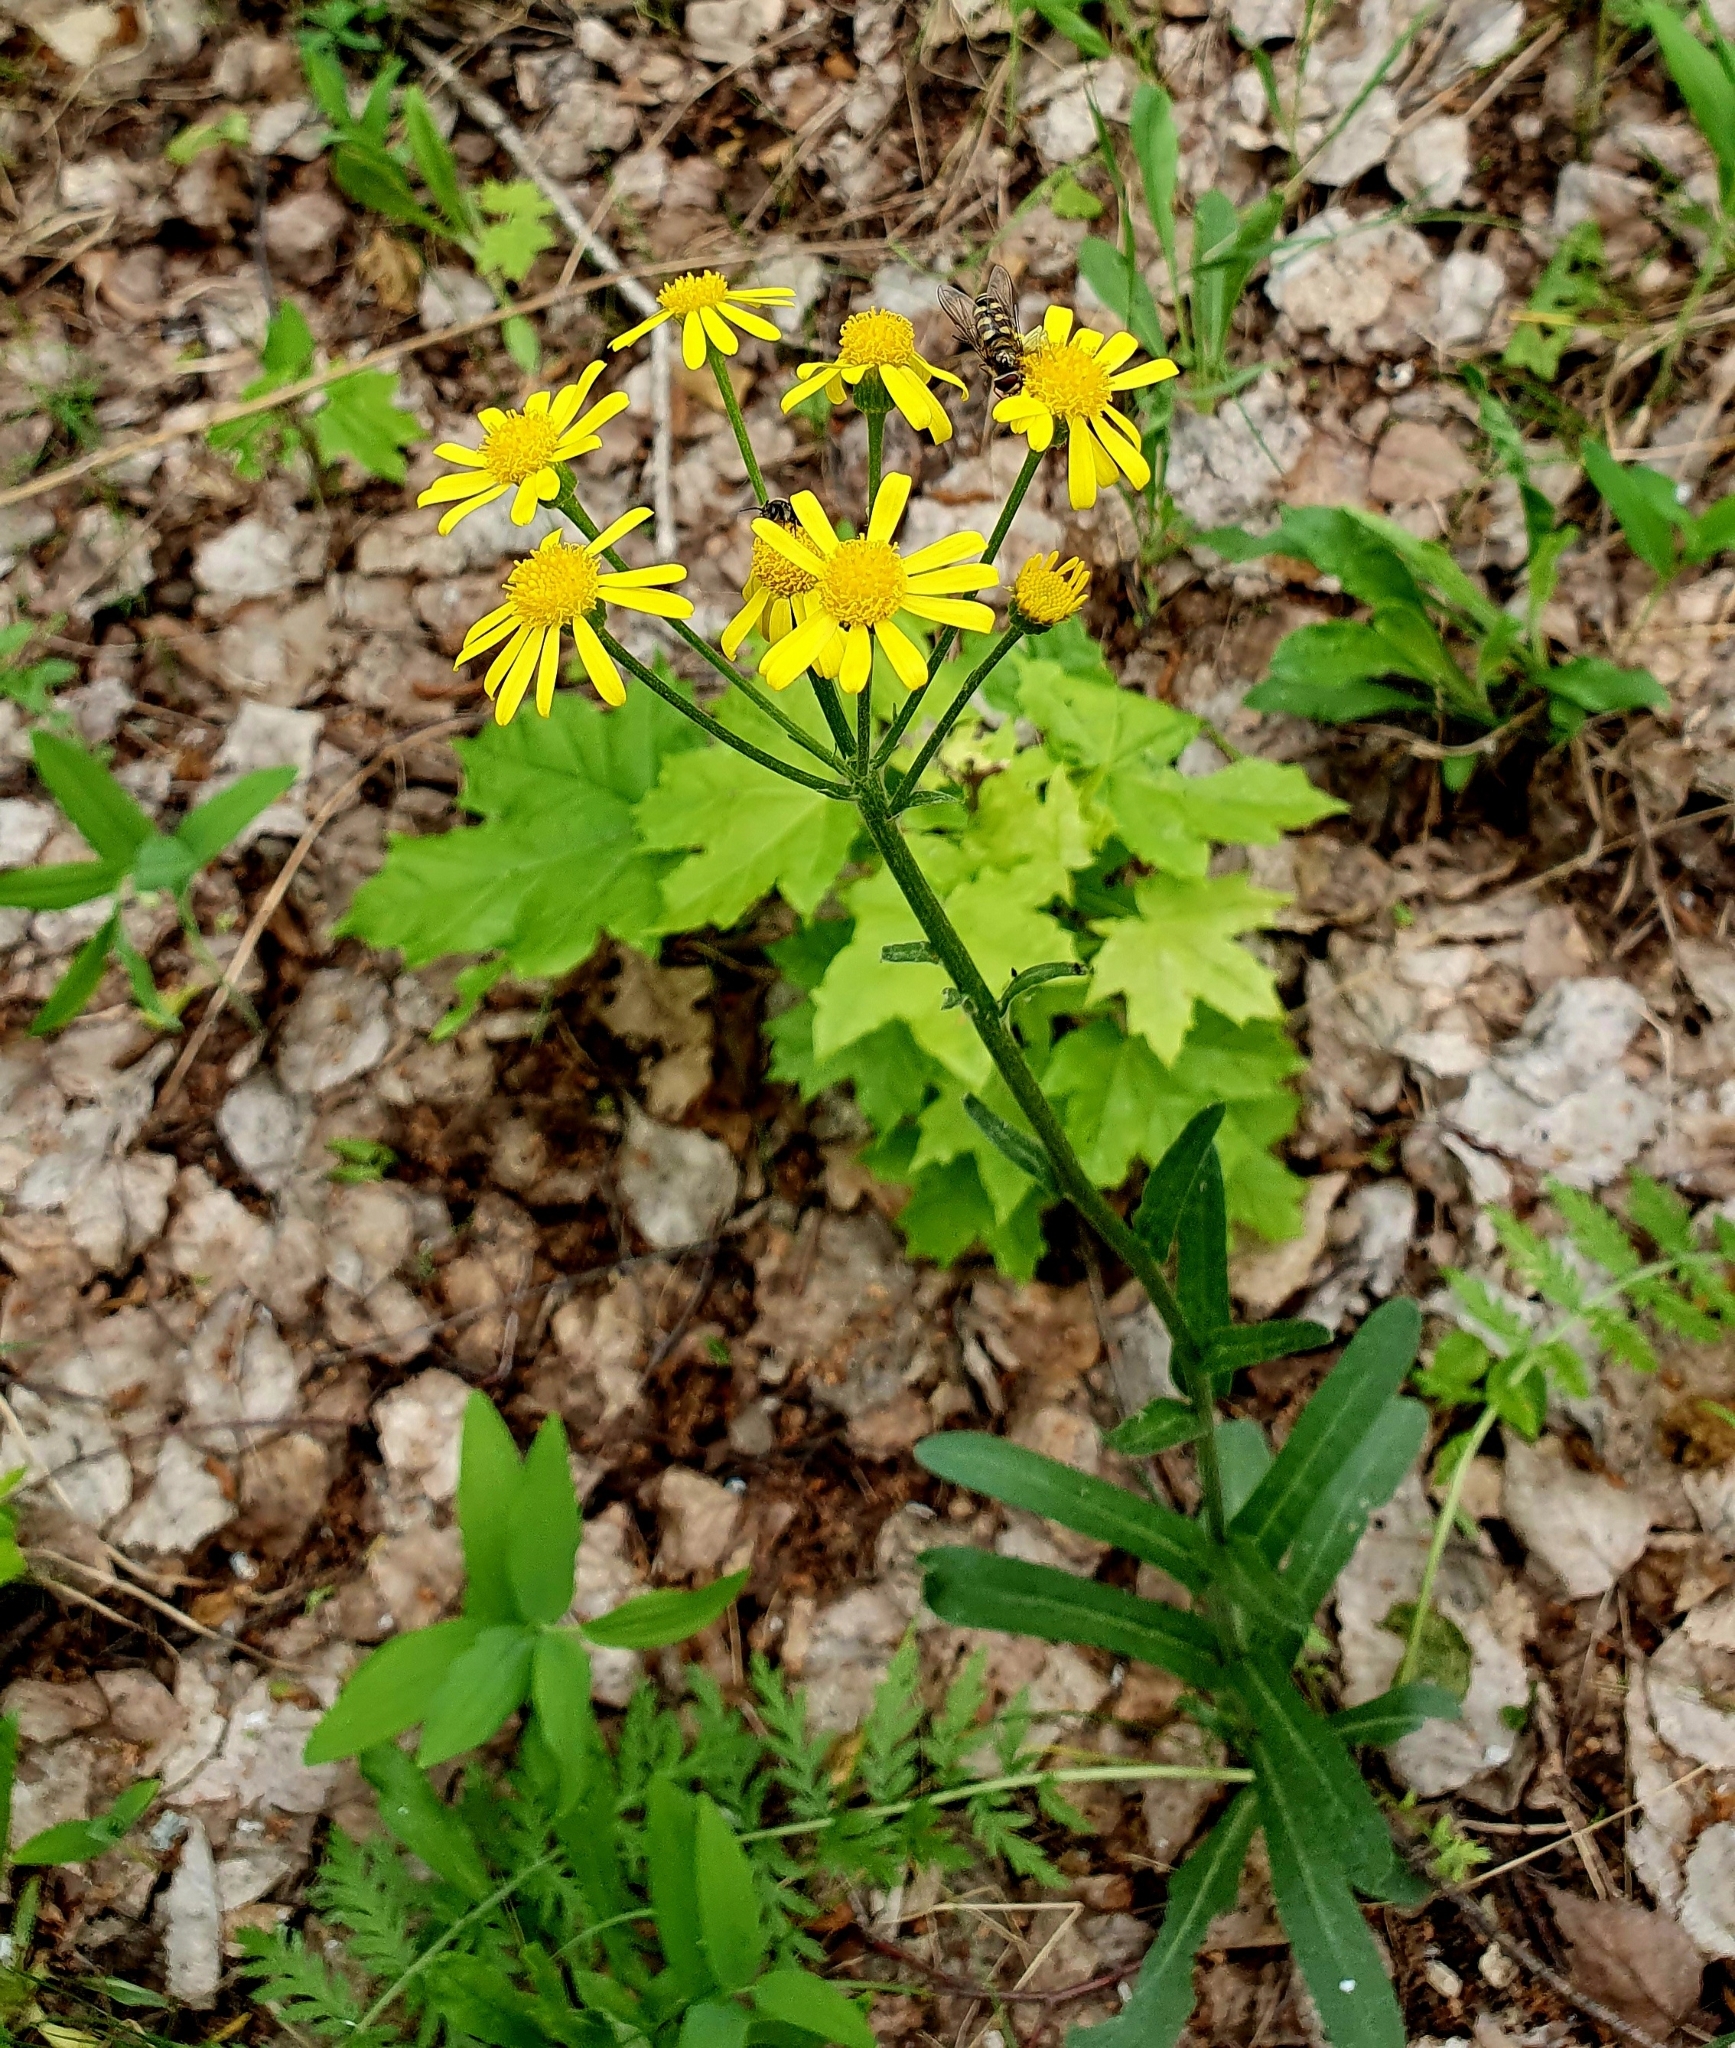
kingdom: Plantae
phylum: Tracheophyta
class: Magnoliopsida
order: Asterales
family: Asteraceae
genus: Tephroseris
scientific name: Tephroseris integrifolia
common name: Field fleawort
